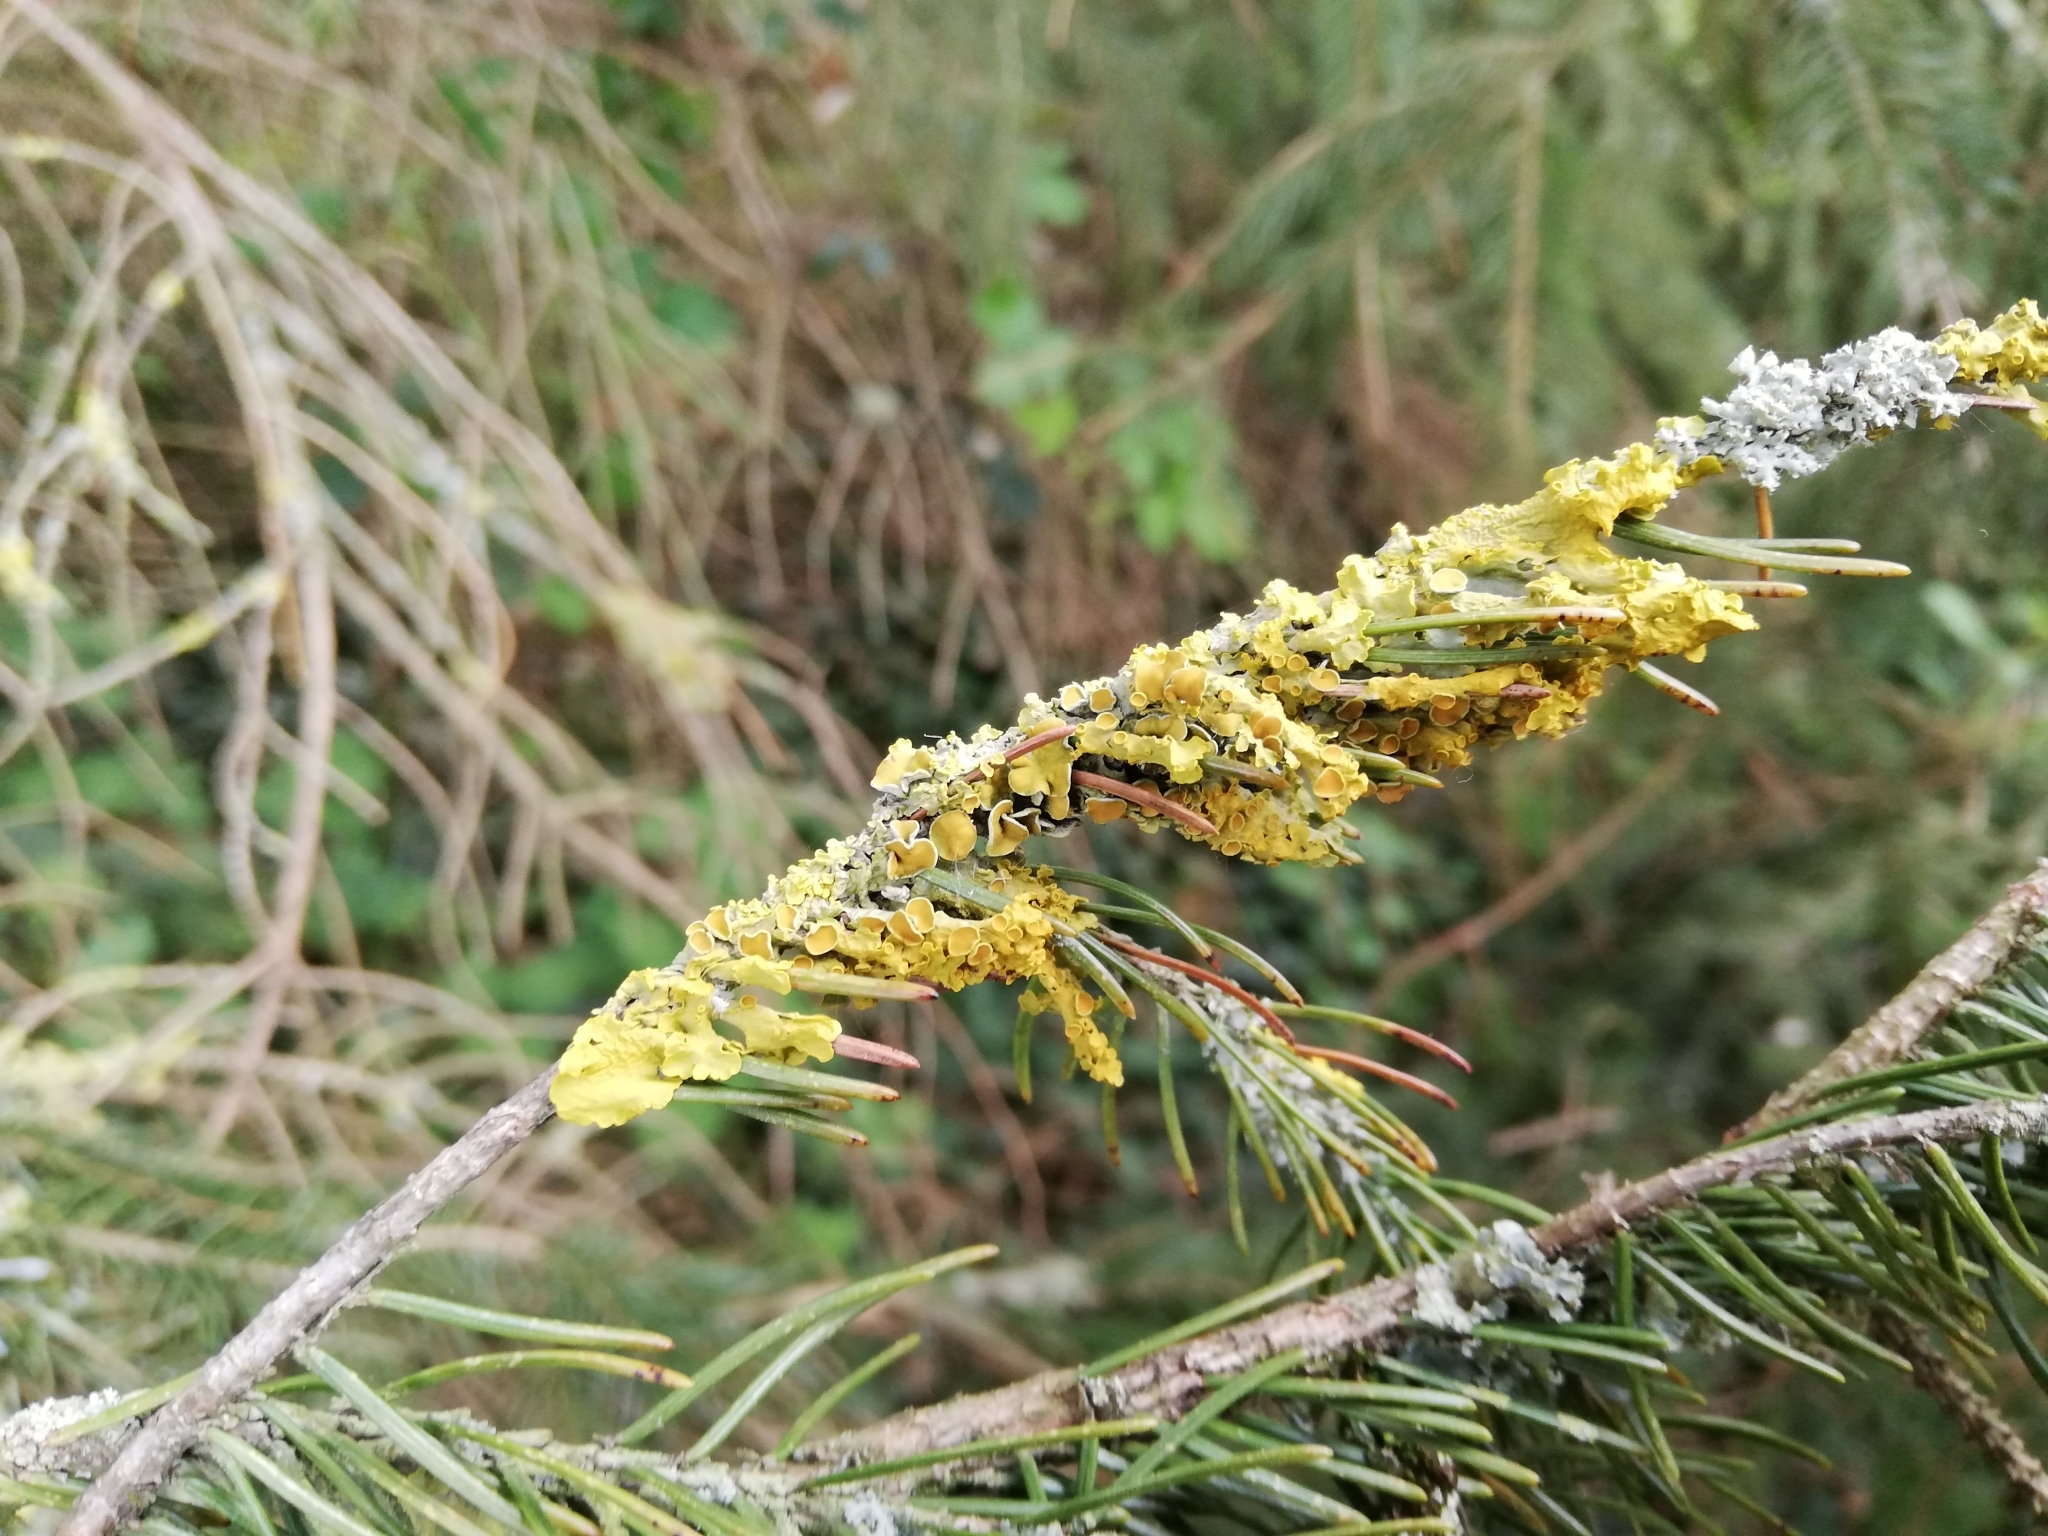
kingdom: Fungi
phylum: Ascomycota
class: Lecanoromycetes
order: Teloschistales
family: Teloschistaceae
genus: Xanthoria
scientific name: Xanthoria parietina
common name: Common orange lichen
